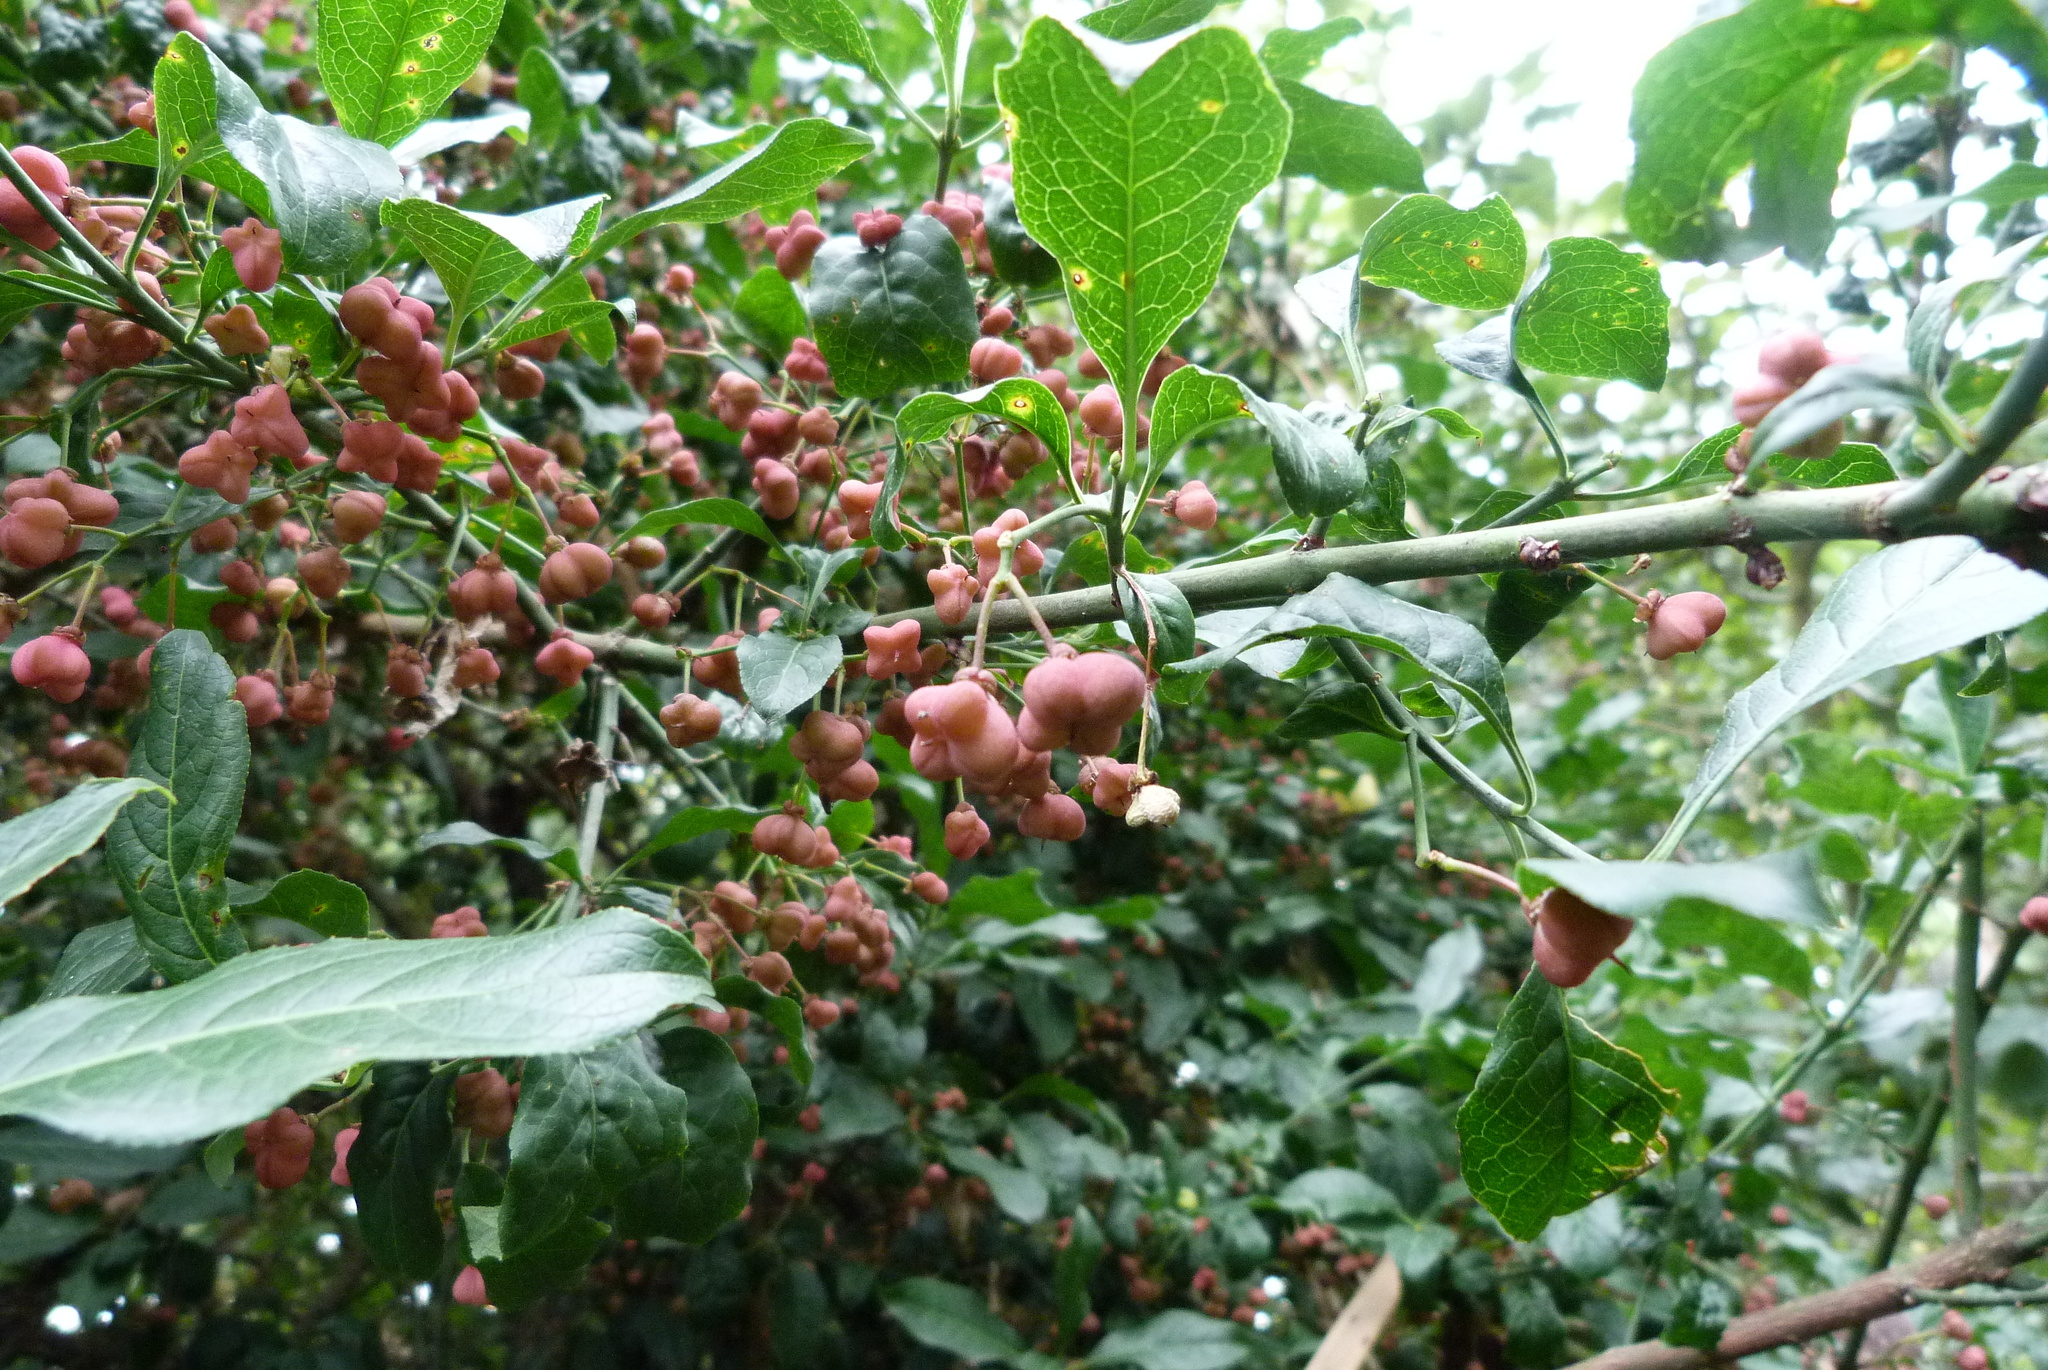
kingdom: Plantae
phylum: Tracheophyta
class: Magnoliopsida
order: Celastrales
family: Celastraceae
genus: Euonymus
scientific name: Euonymus europaeus
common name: Spindle
